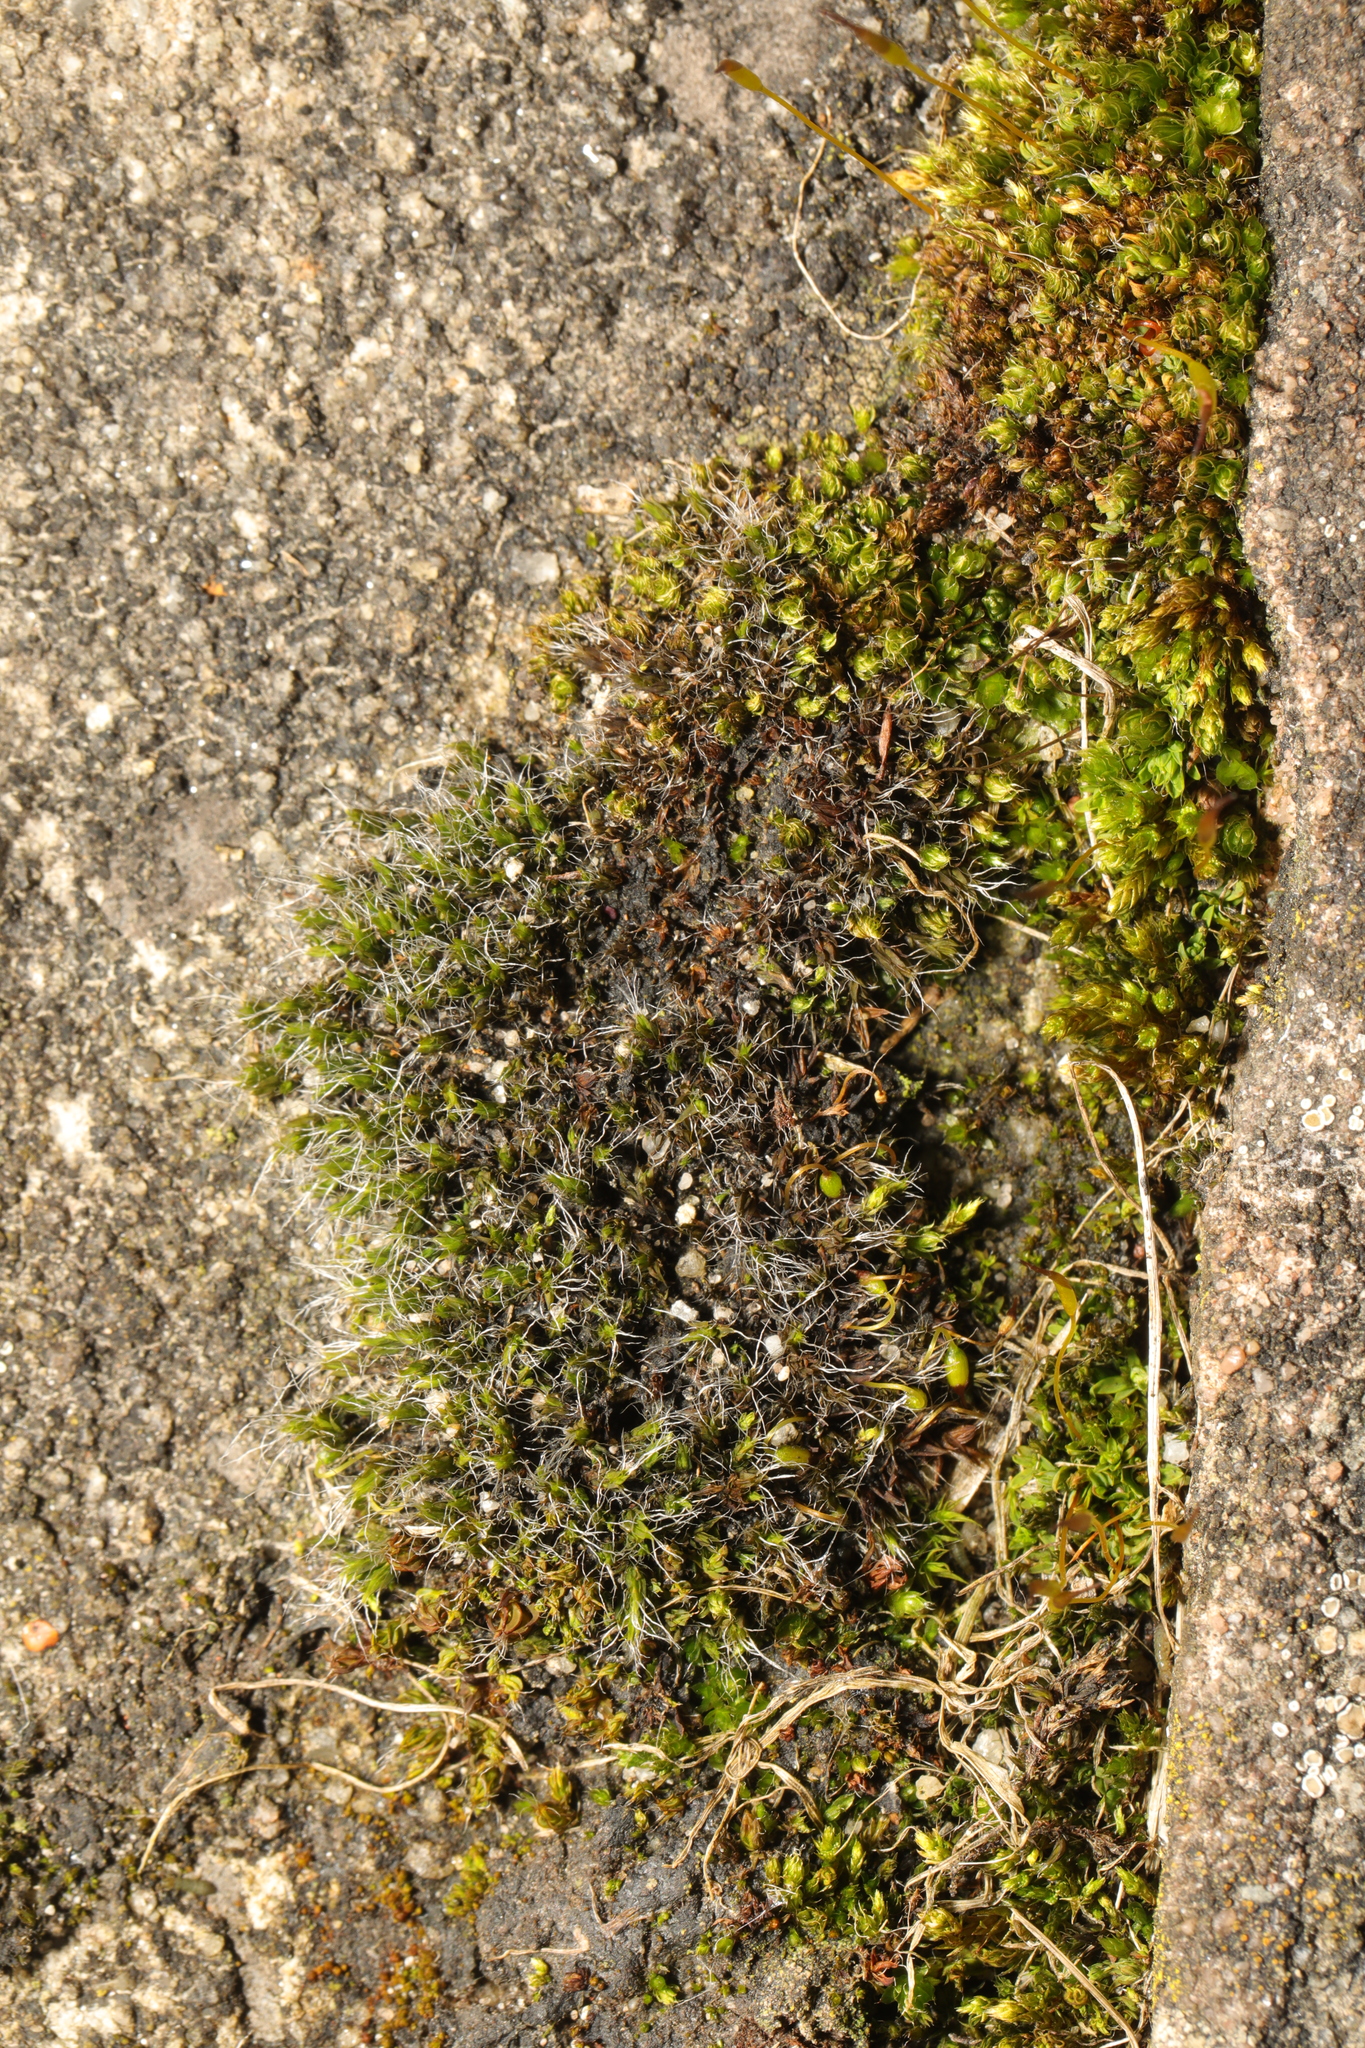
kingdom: Plantae
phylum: Bryophyta
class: Bryopsida
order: Grimmiales
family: Grimmiaceae
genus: Grimmia
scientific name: Grimmia pulvinata
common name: Grey-cushioned grimmia
